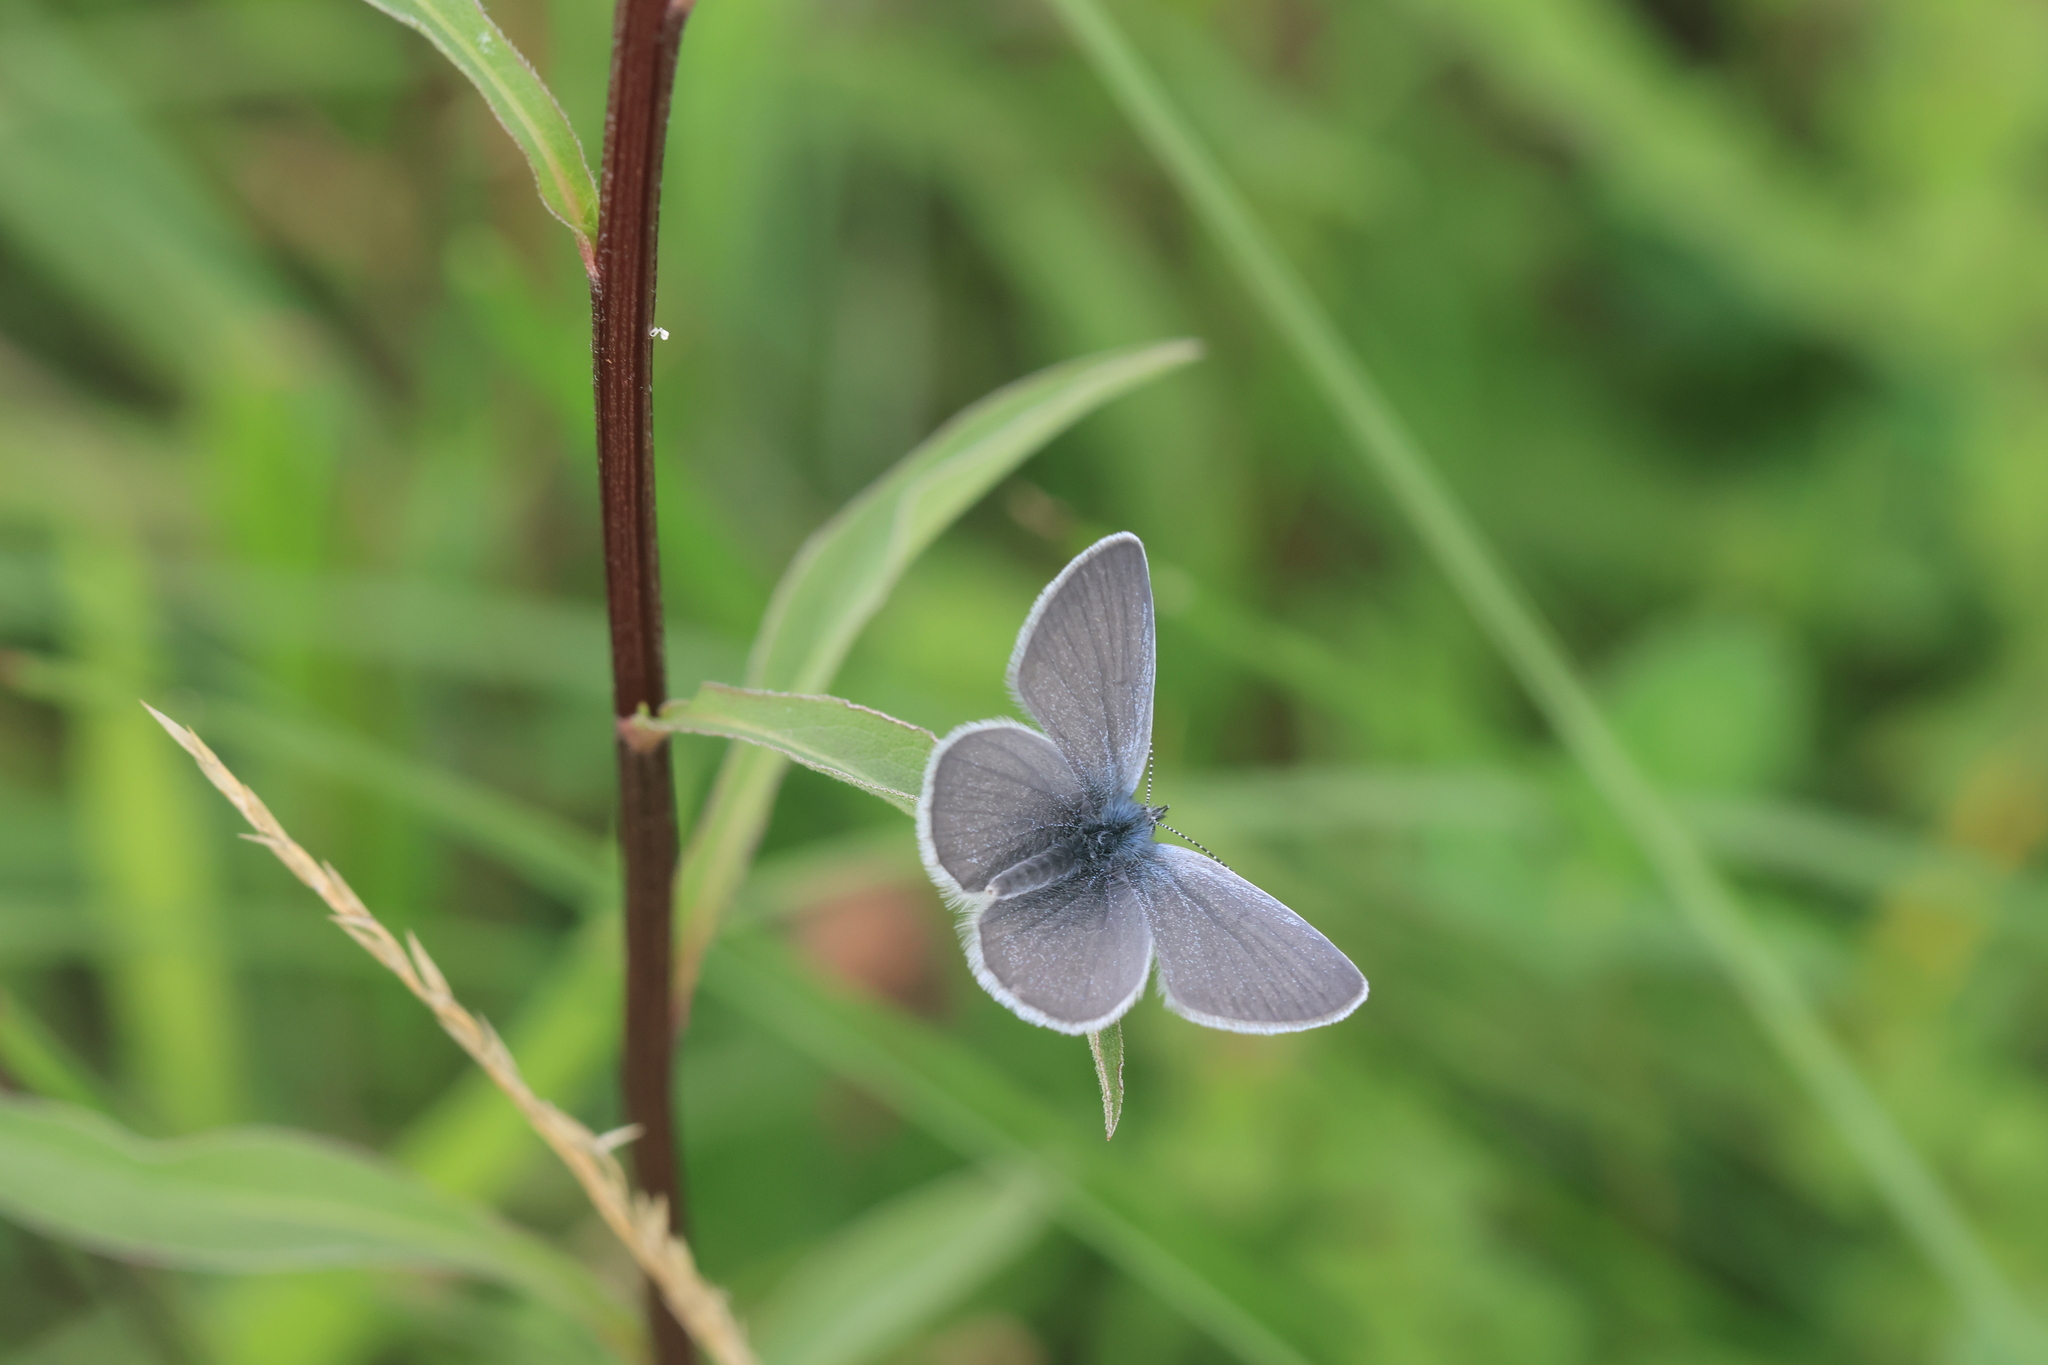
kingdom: Animalia
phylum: Arthropoda
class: Insecta
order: Lepidoptera
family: Lycaenidae
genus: Cupido
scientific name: Cupido minimus
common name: Small blue
